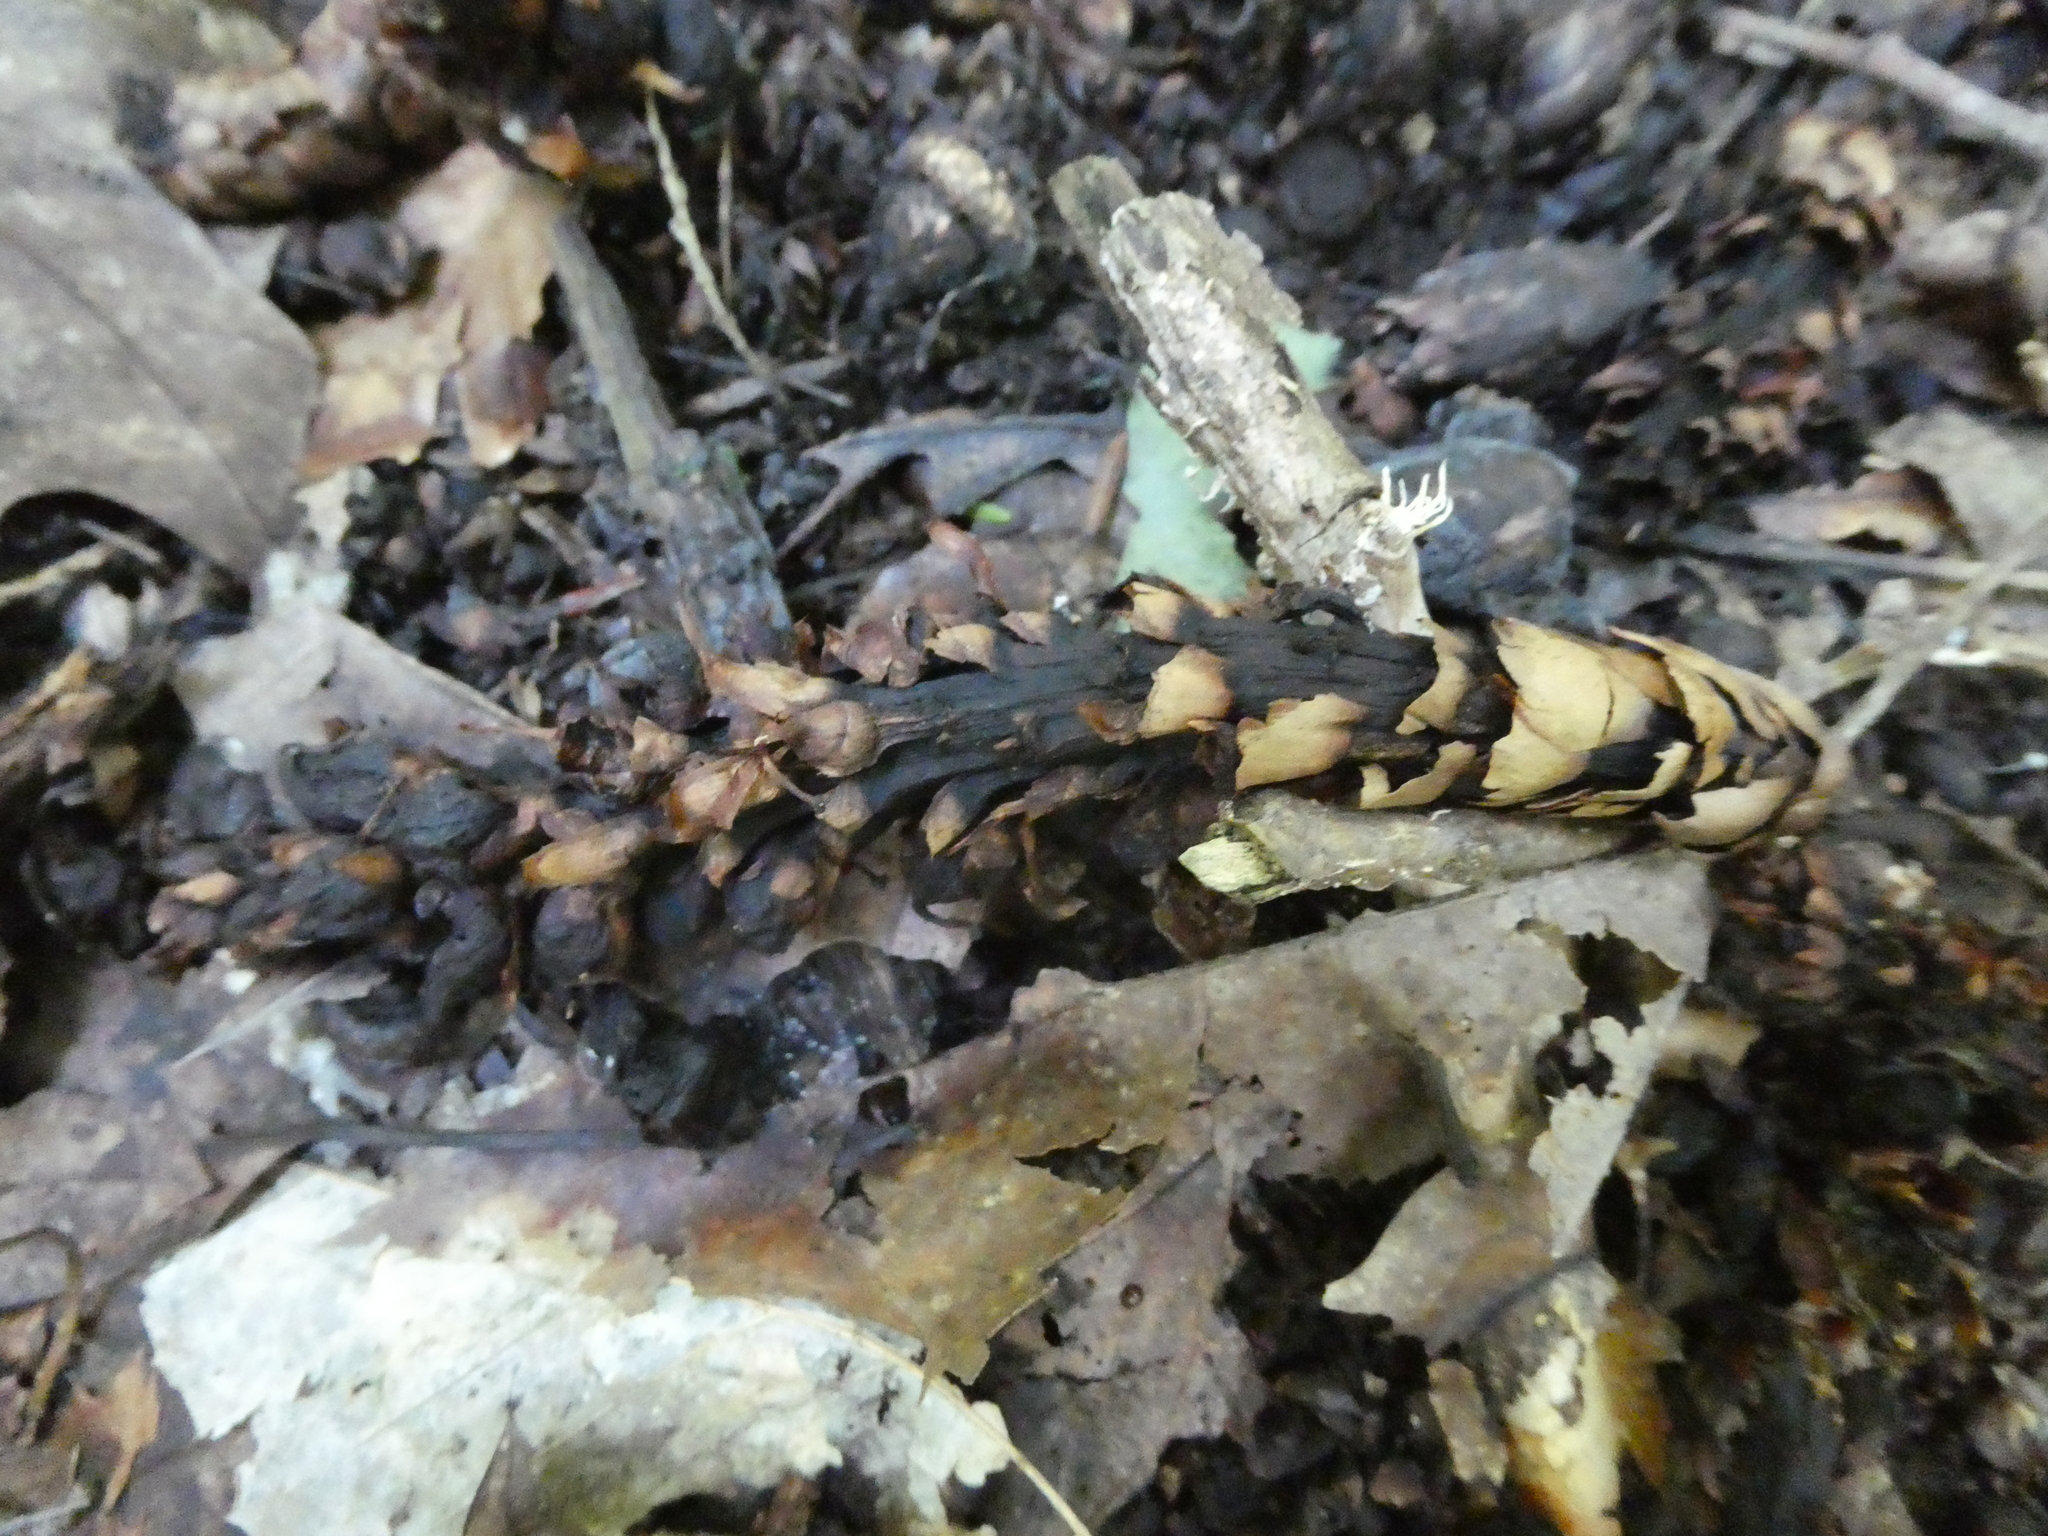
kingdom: Plantae
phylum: Tracheophyta
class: Magnoliopsida
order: Lamiales
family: Orobanchaceae
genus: Conopholis
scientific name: Conopholis americana
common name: American cancer-root
